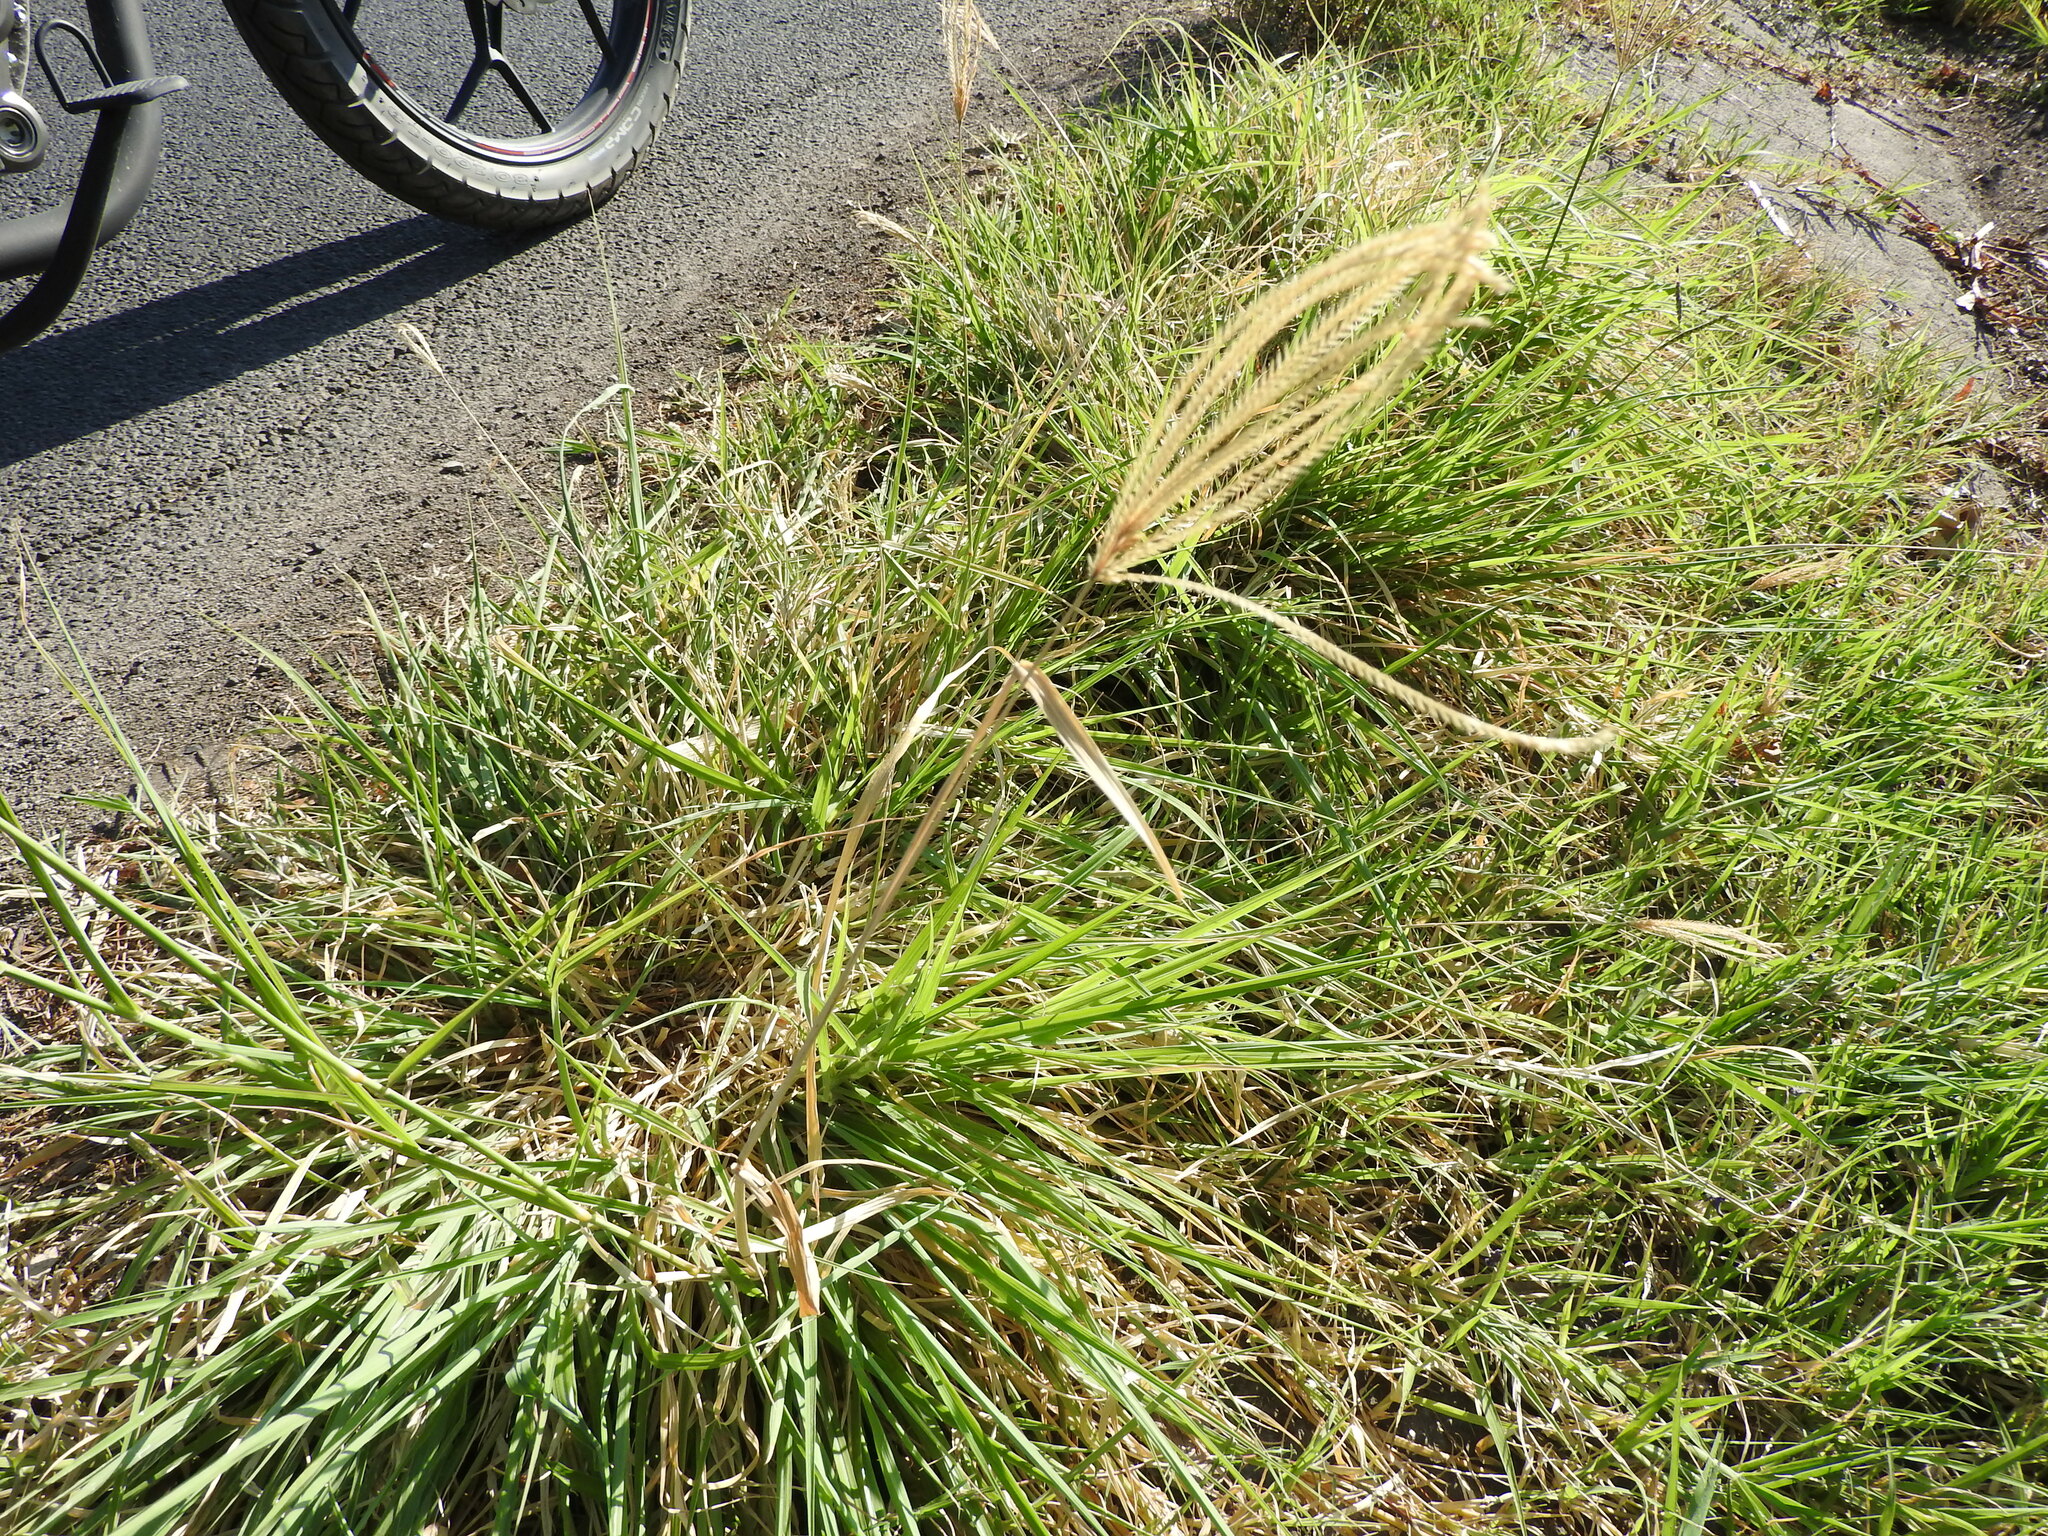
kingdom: Plantae
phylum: Tracheophyta
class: Liliopsida
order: Poales
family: Poaceae
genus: Chloris
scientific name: Chloris radiata
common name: Radiate fingergrass
